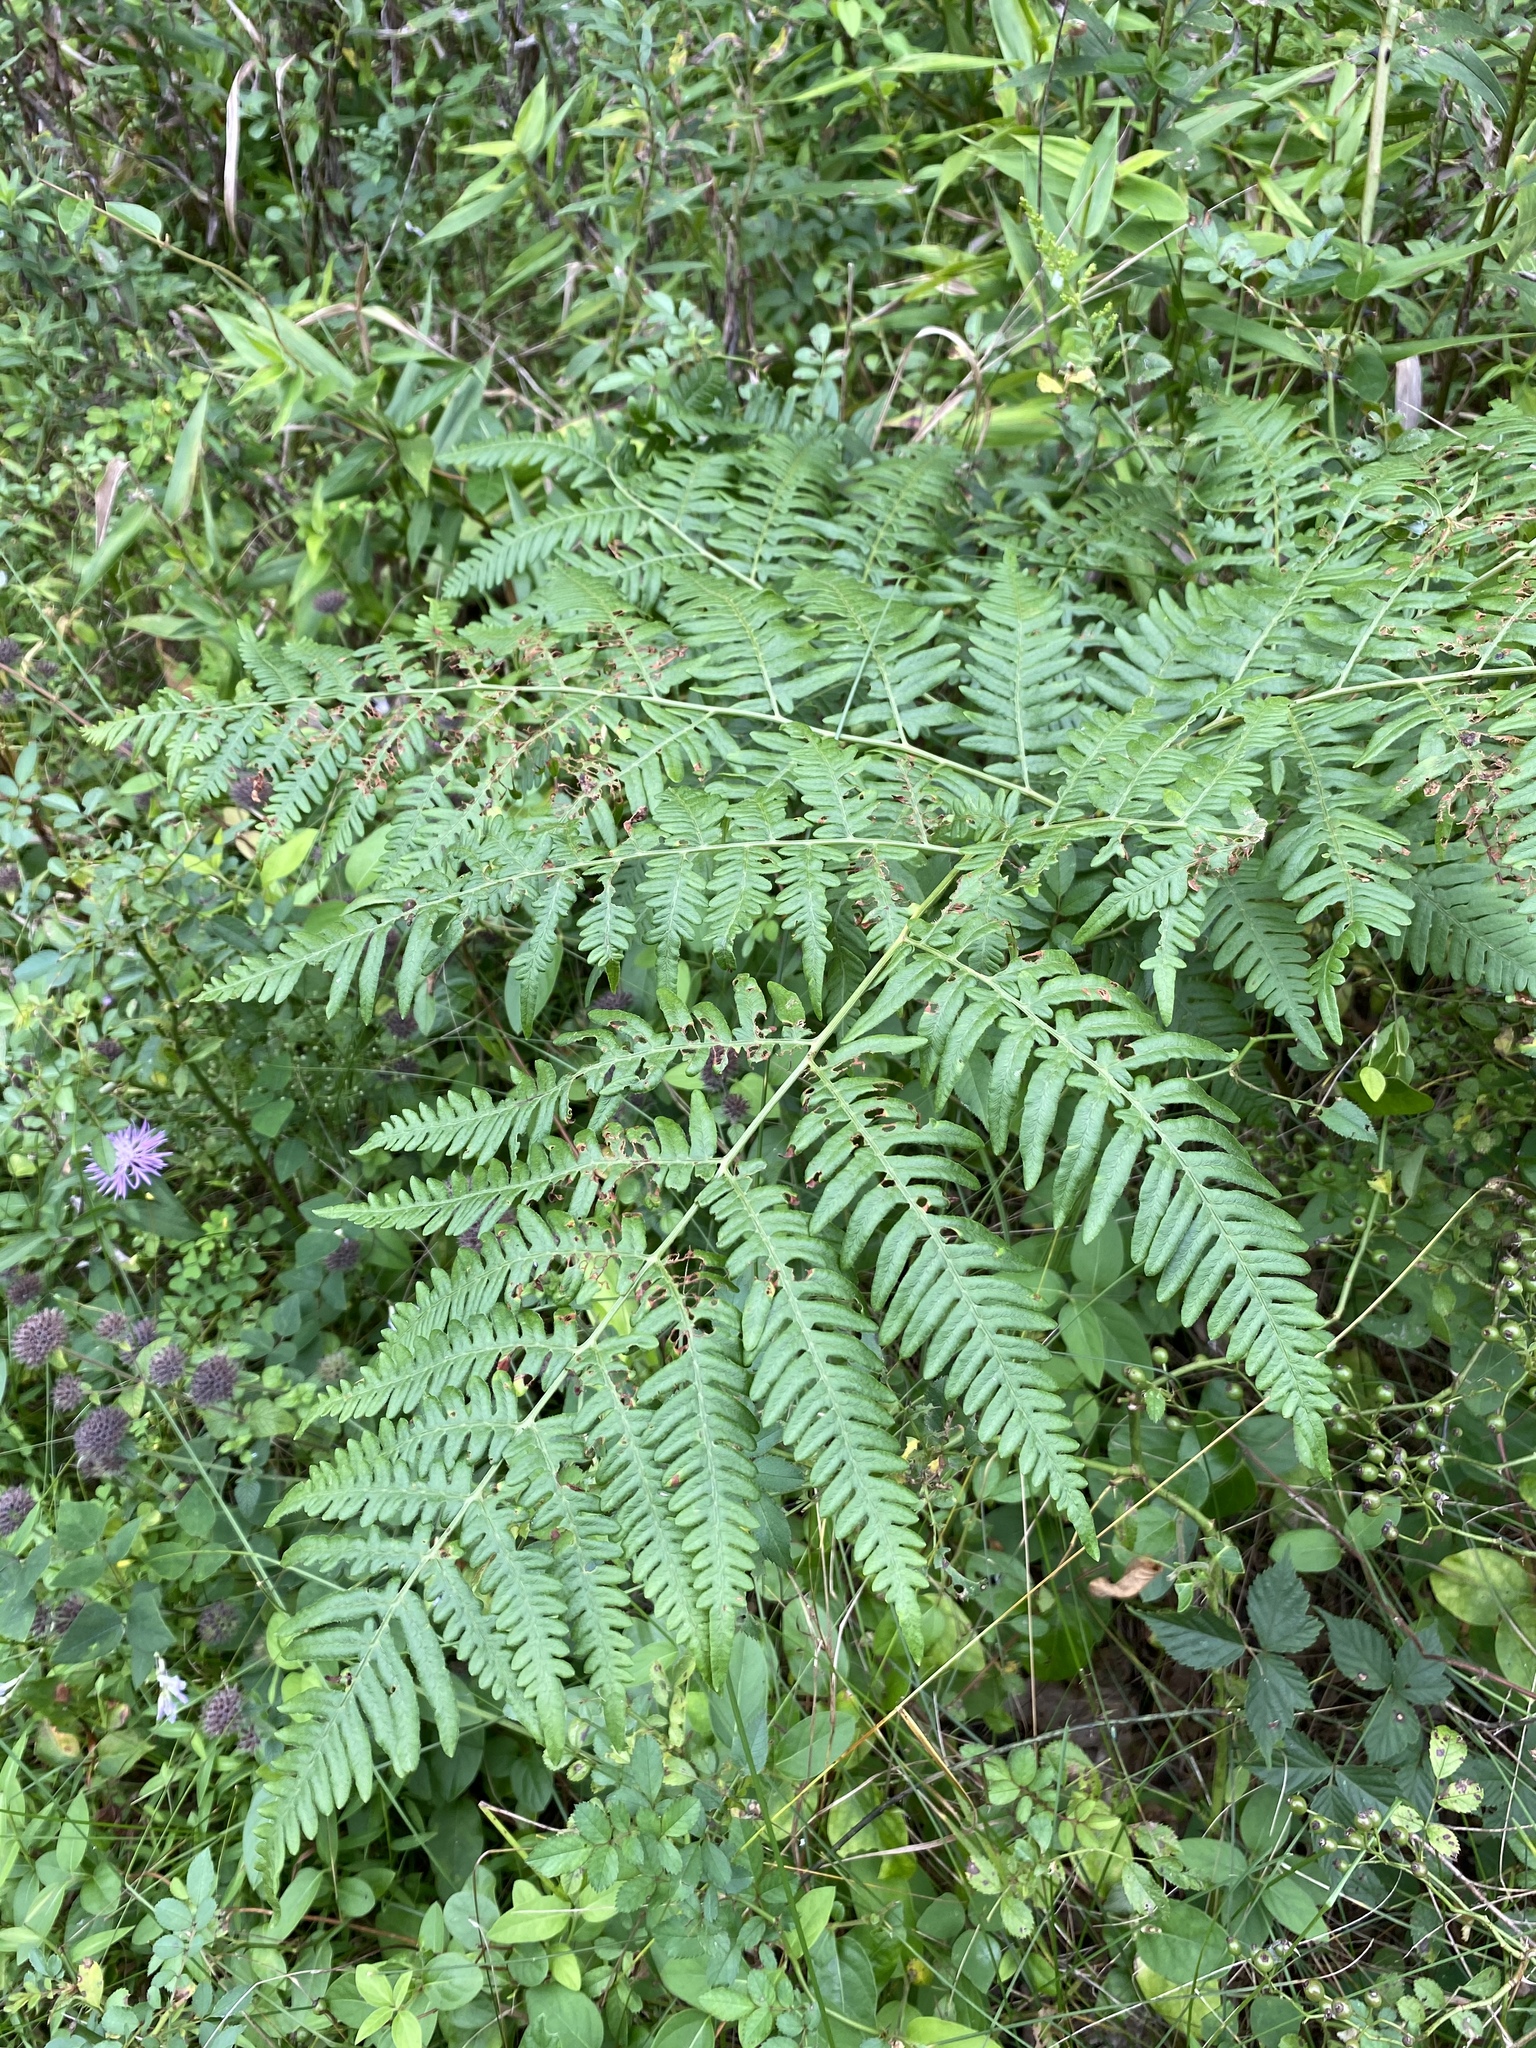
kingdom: Plantae
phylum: Tracheophyta
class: Polypodiopsida
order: Polypodiales
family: Dennstaedtiaceae
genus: Pteridium
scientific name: Pteridium aquilinum
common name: Bracken
